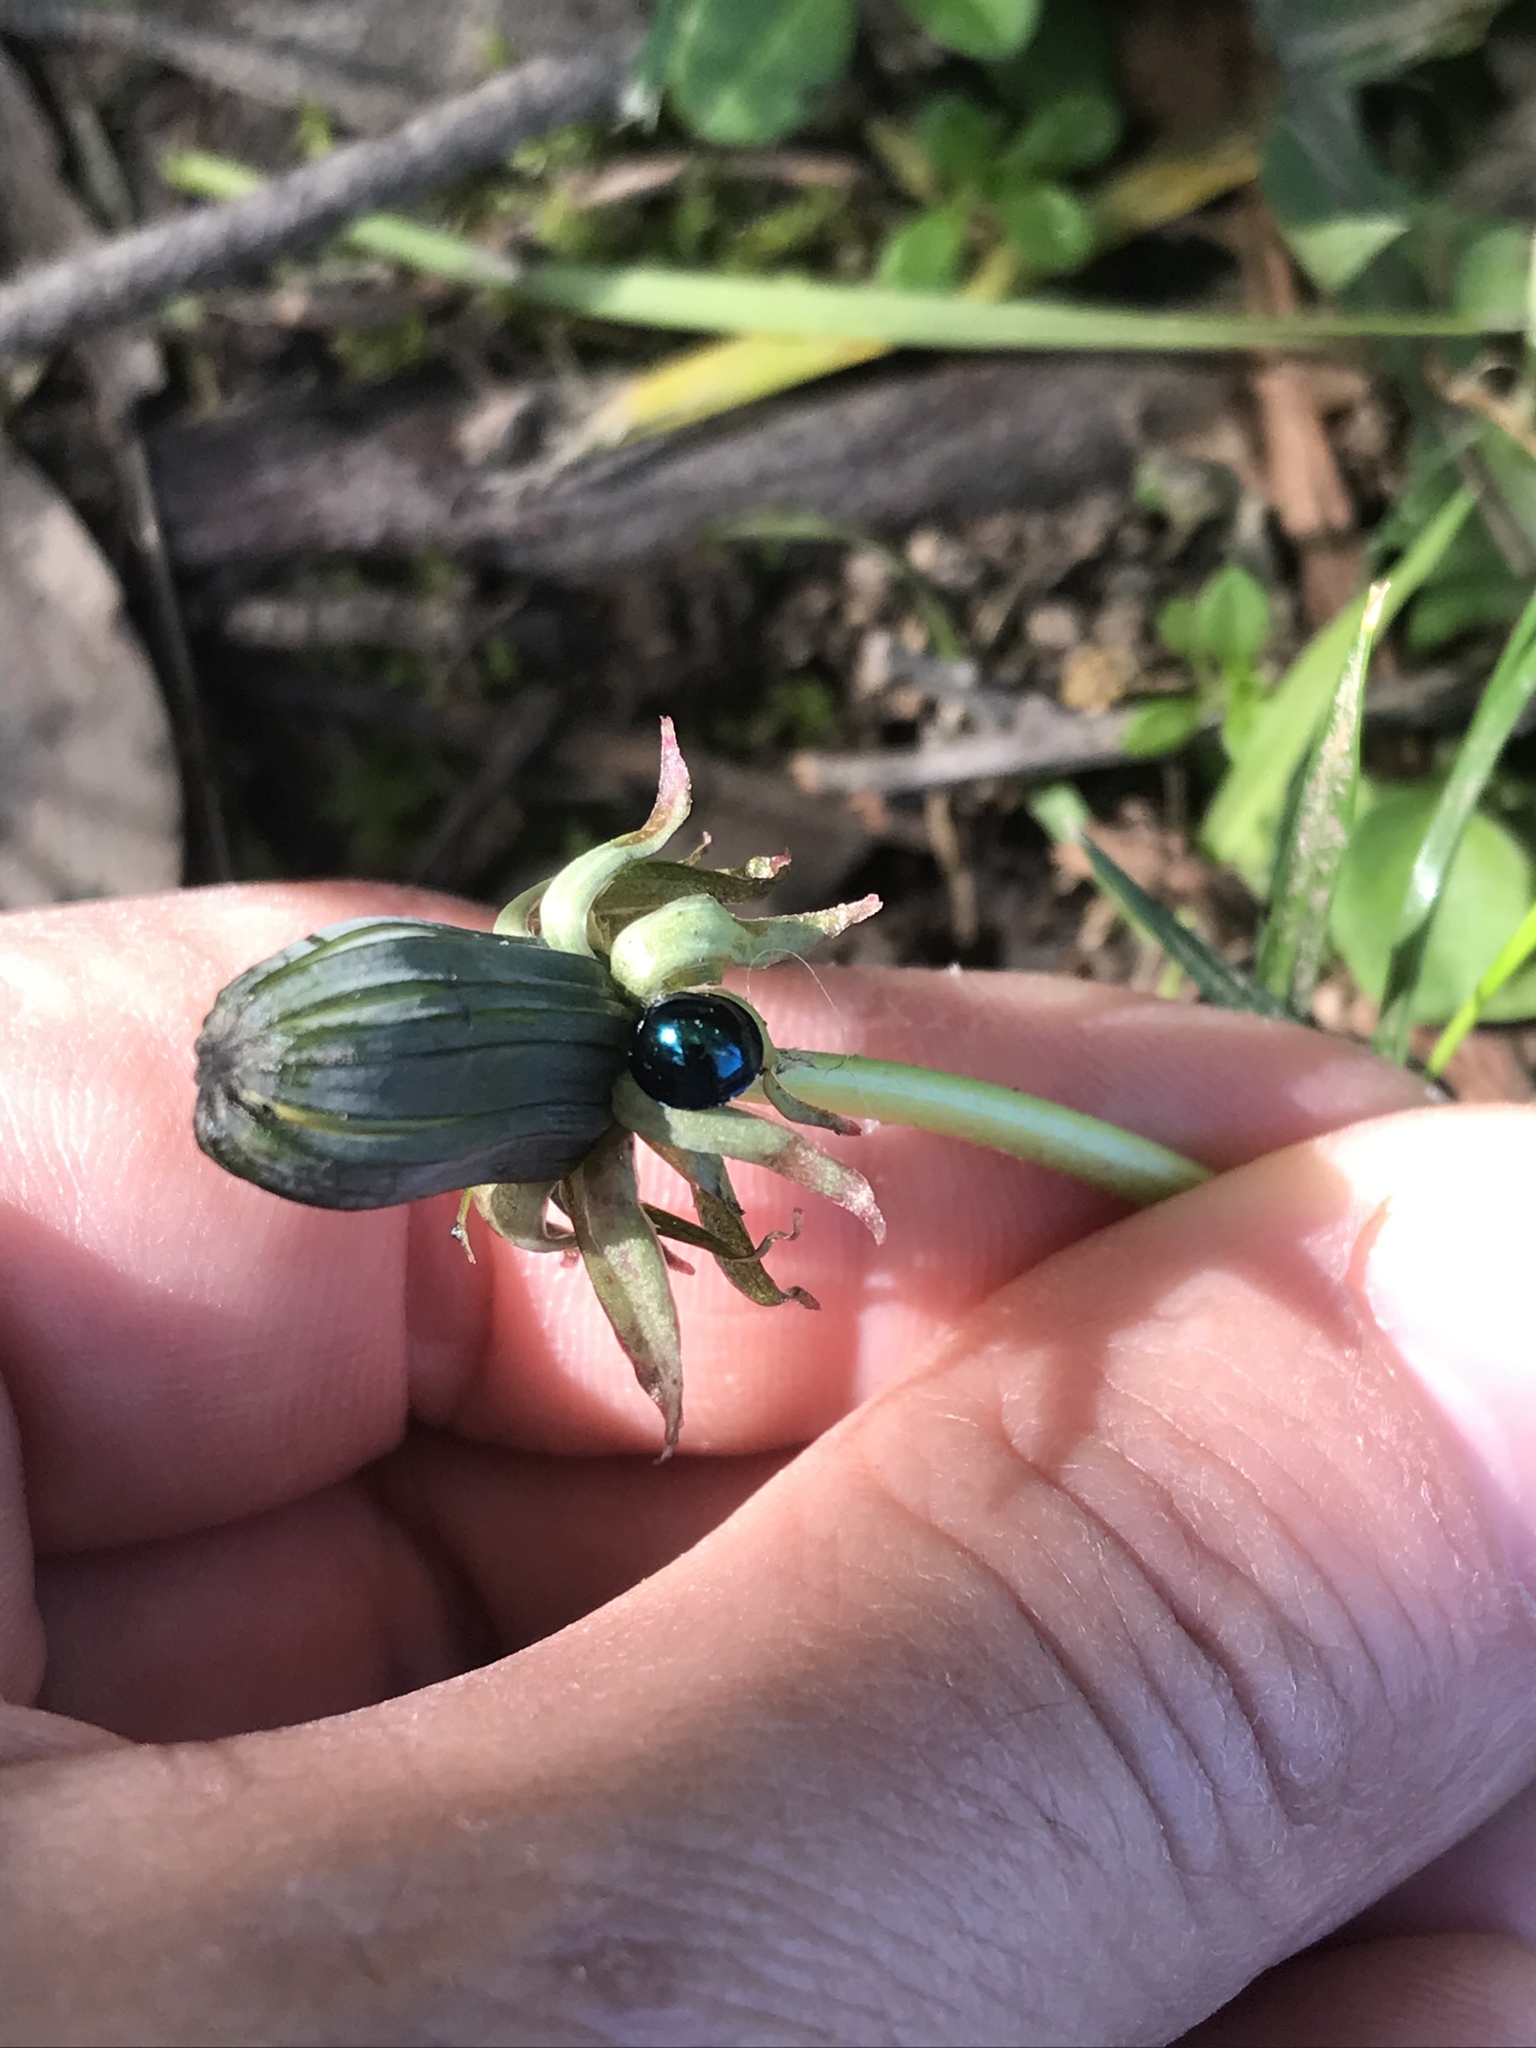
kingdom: Animalia
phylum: Arthropoda
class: Insecta
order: Coleoptera
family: Coccinellidae
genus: Halmus
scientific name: Halmus chalybeus
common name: Steel blue ladybird beetle
